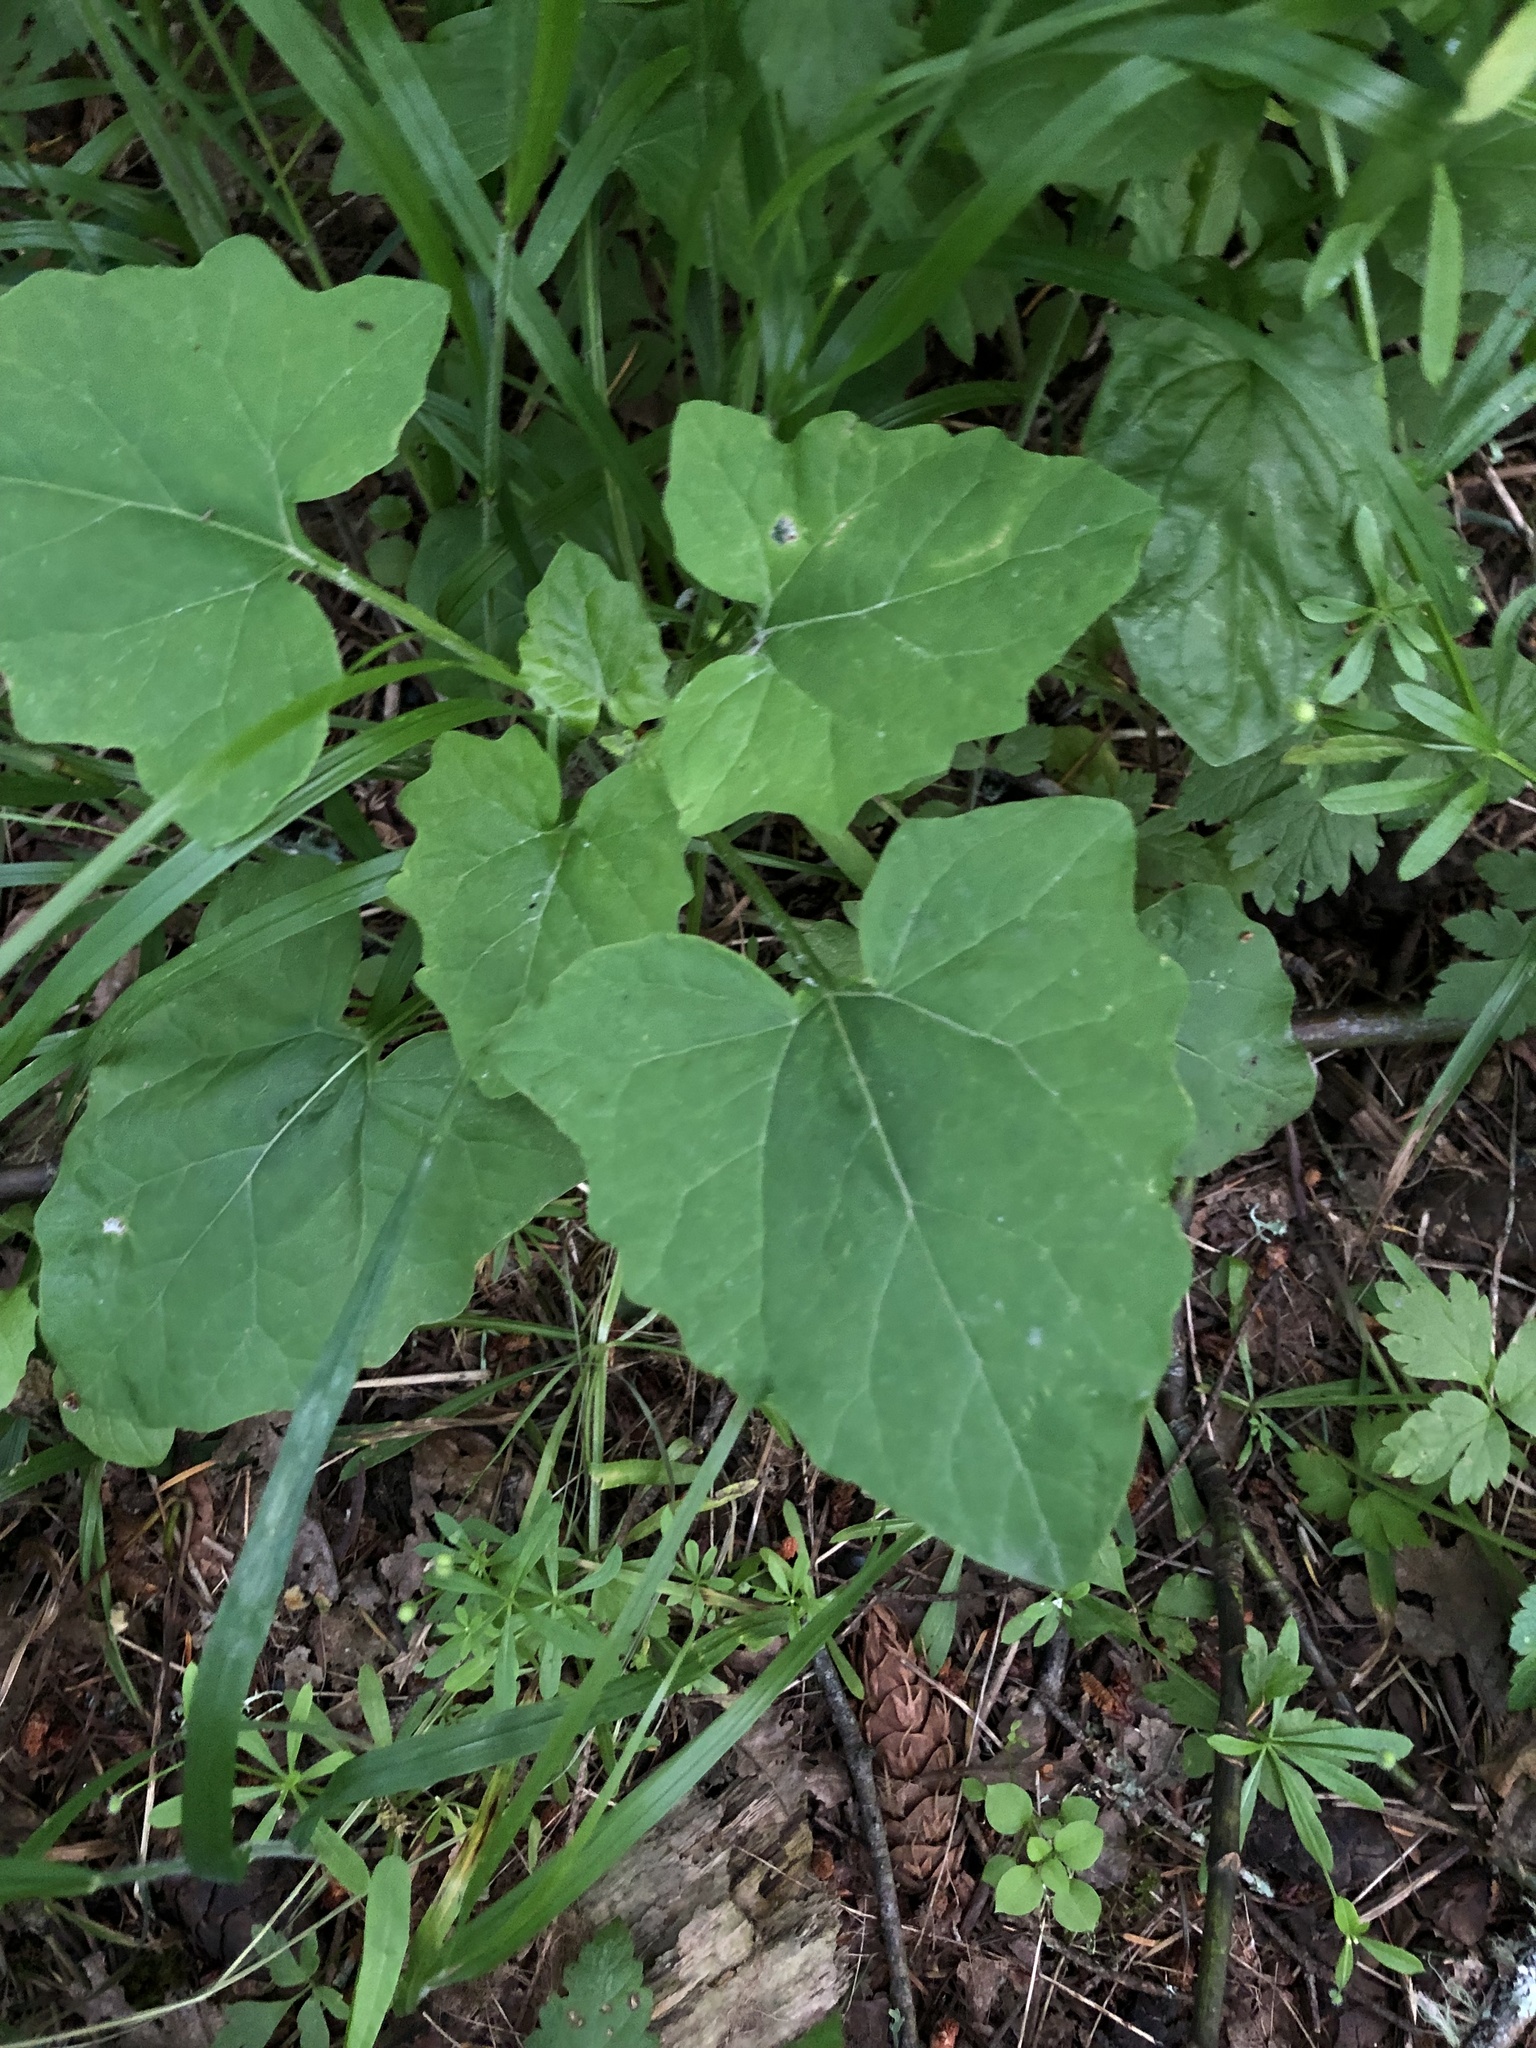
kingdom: Plantae
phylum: Tracheophyta
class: Magnoliopsida
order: Asterales
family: Asteraceae
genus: Adenocaulon
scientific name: Adenocaulon bicolor
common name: Trailplant
